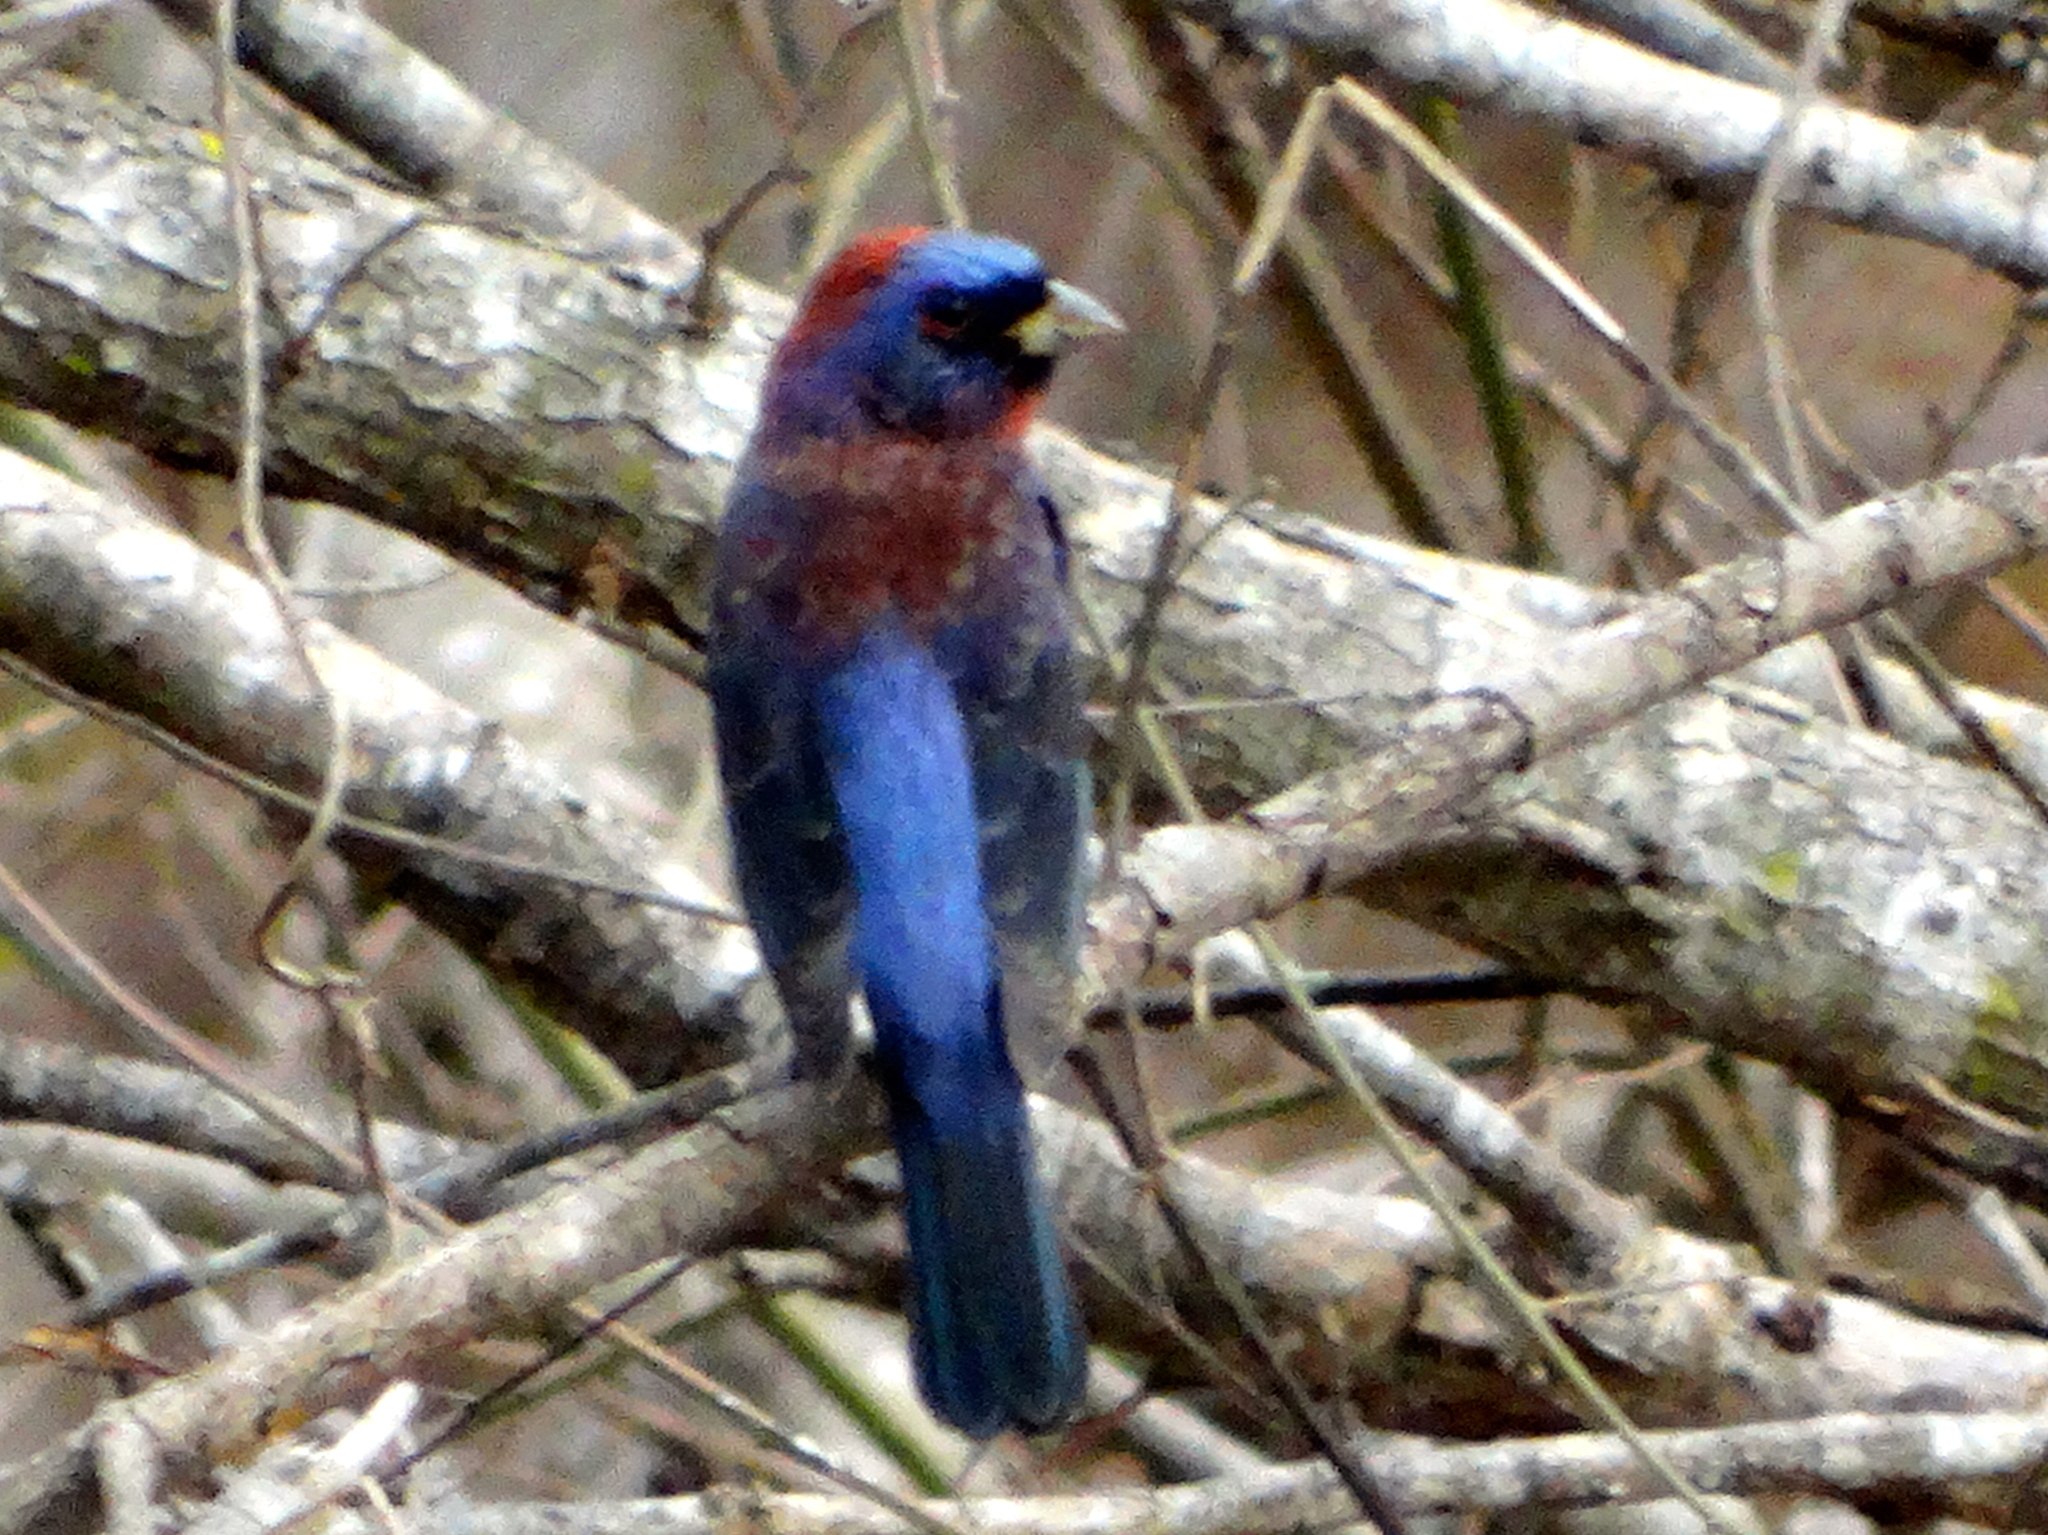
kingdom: Animalia
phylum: Chordata
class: Aves
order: Passeriformes
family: Cardinalidae
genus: Passerina
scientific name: Passerina versicolor
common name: Varied bunting
